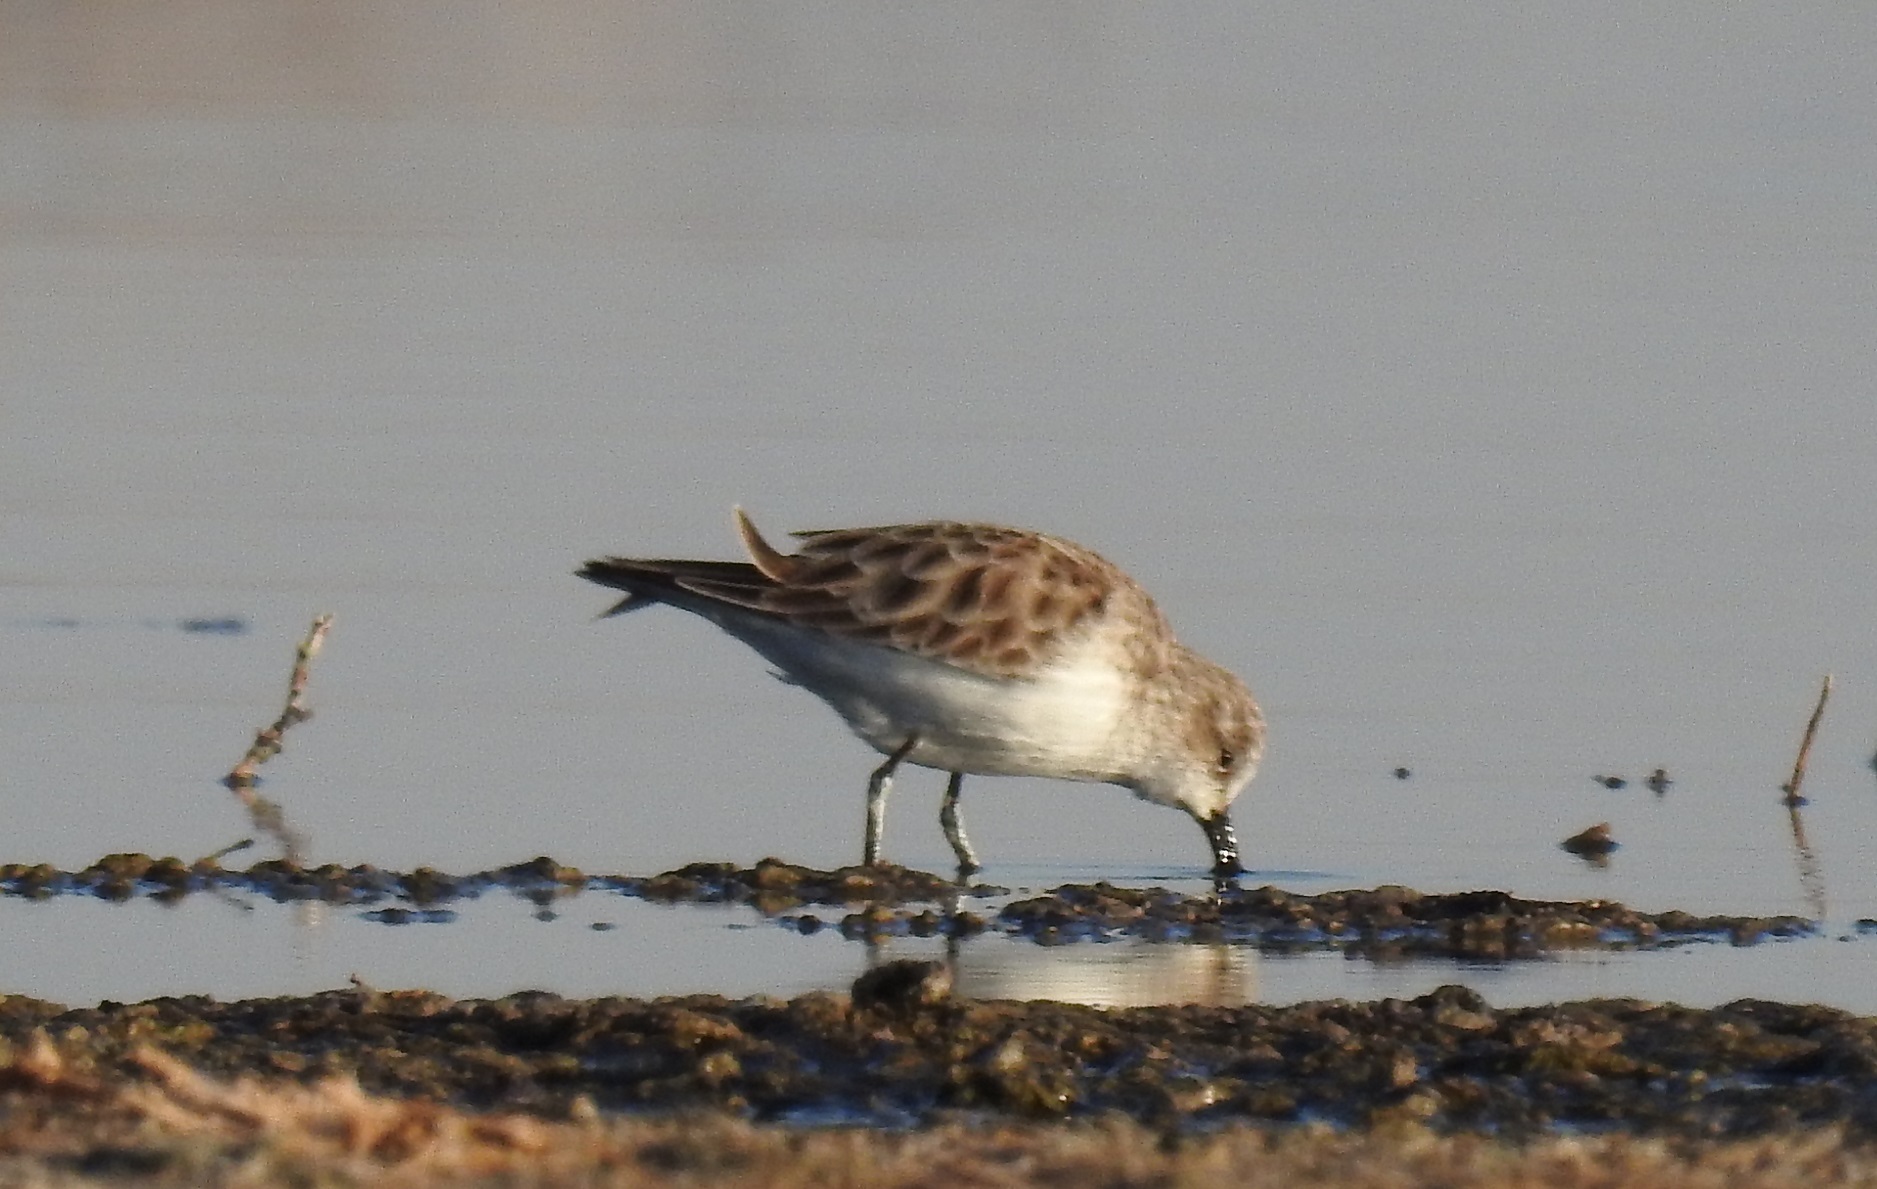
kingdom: Animalia
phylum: Chordata
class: Aves
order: Charadriiformes
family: Scolopacidae
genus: Calidris
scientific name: Calidris minuta
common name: Little stint
